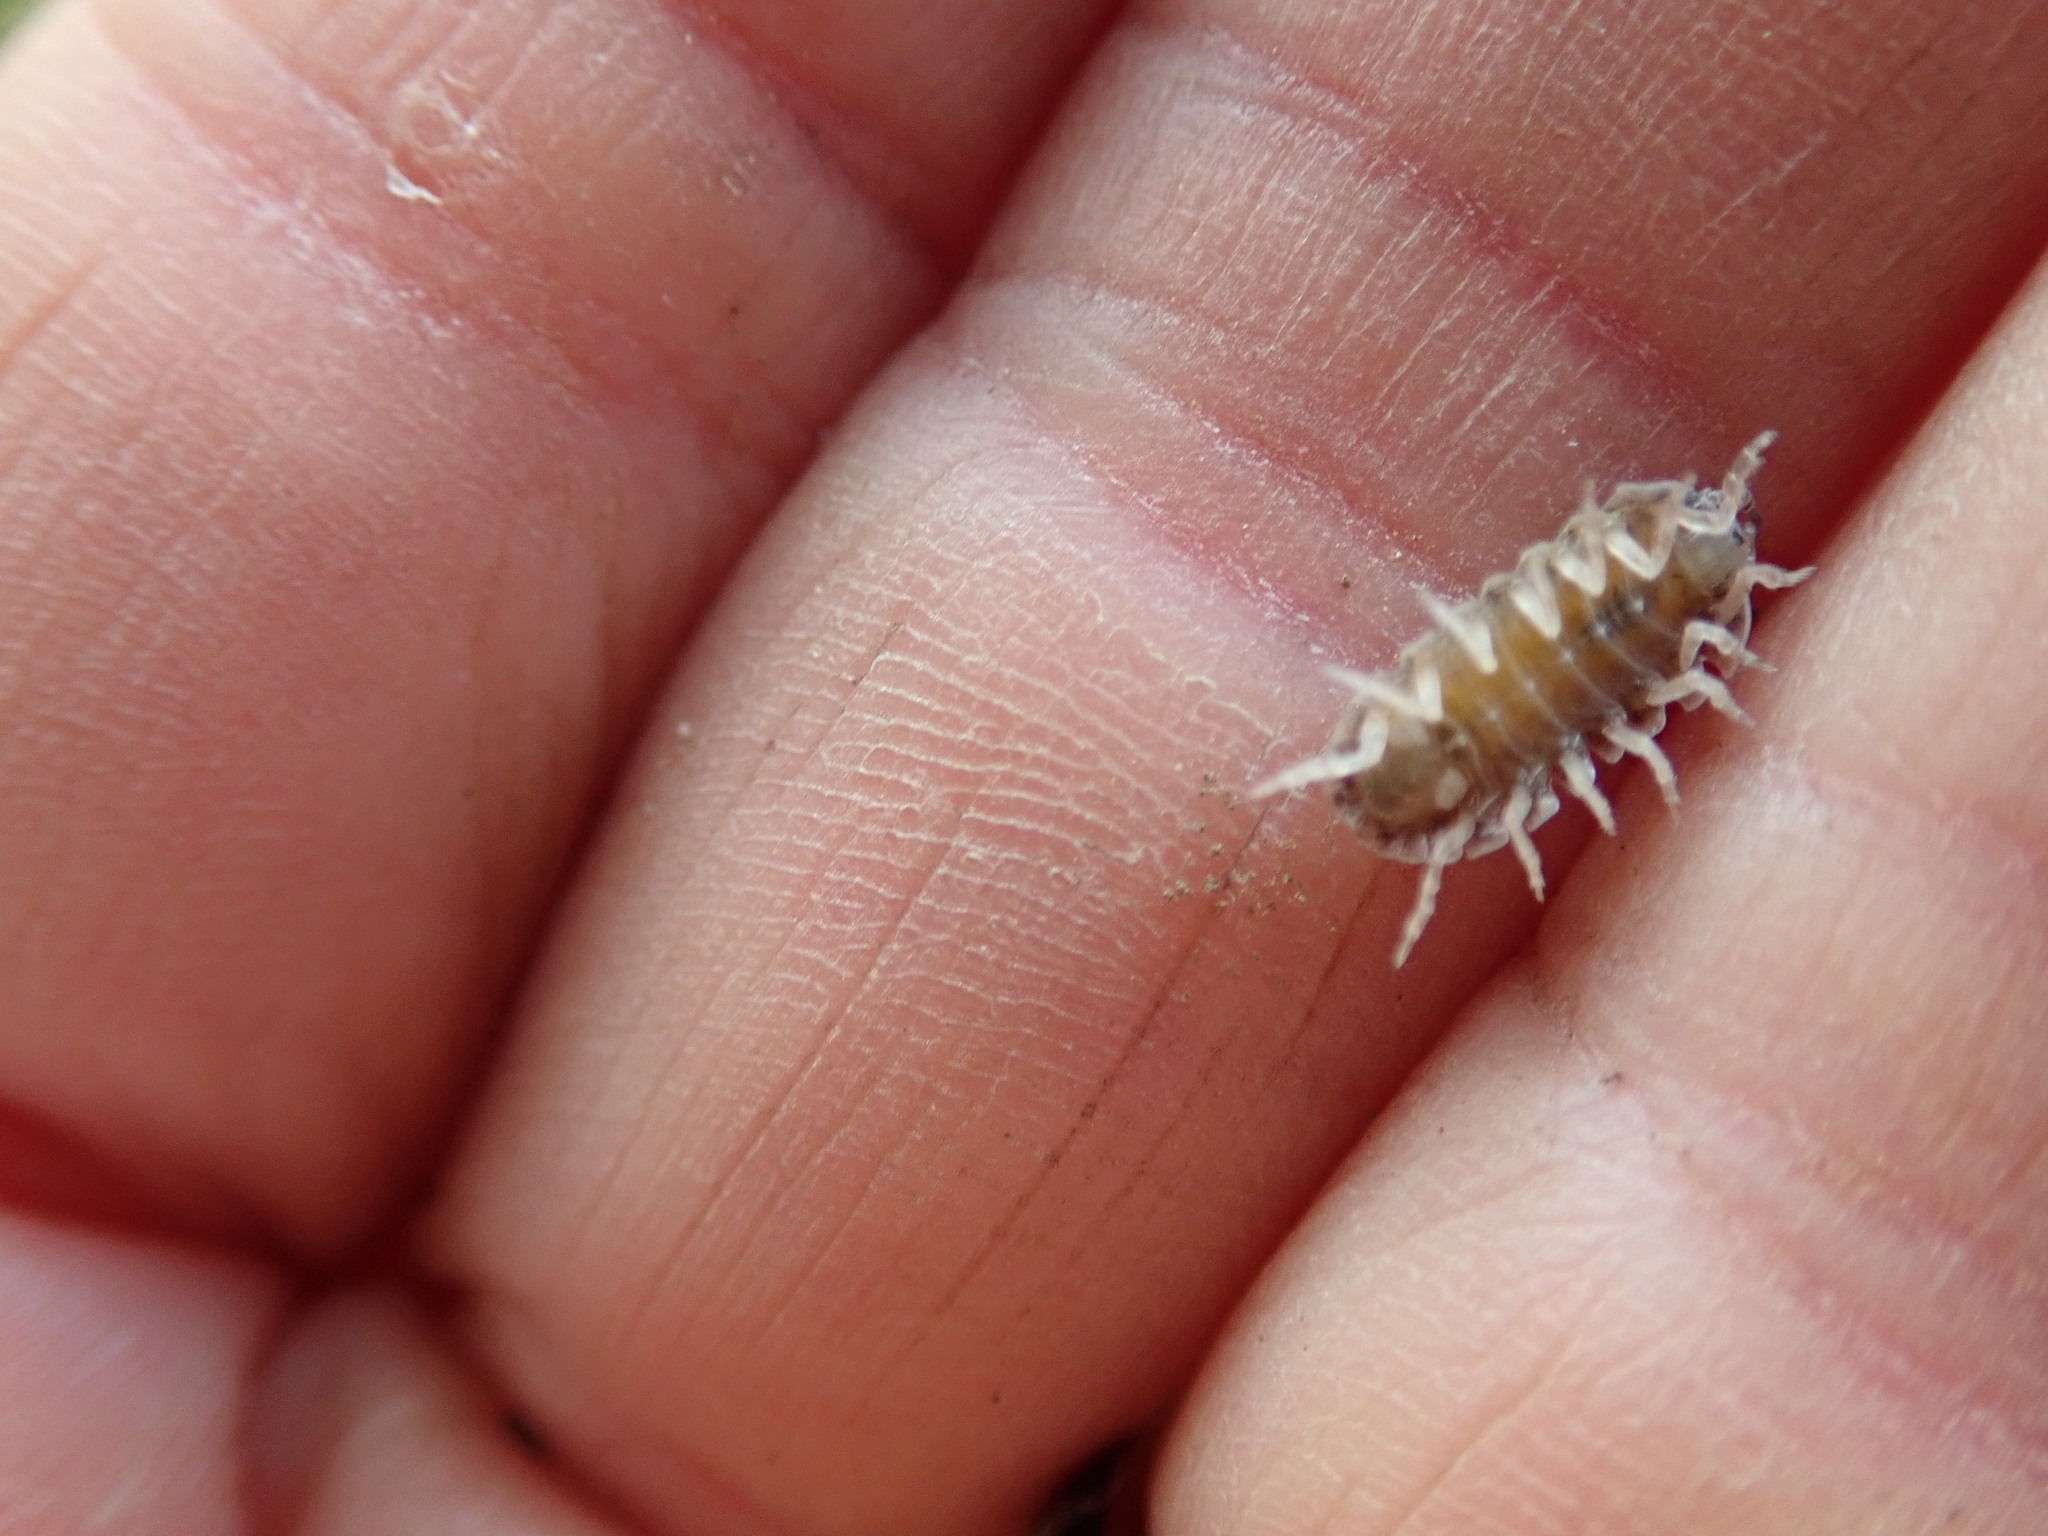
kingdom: Animalia
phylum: Arthropoda
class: Malacostraca
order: Isopoda
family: Armadillidiidae
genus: Armadillidium
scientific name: Armadillidium vulgare
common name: Common pill woodlouse
